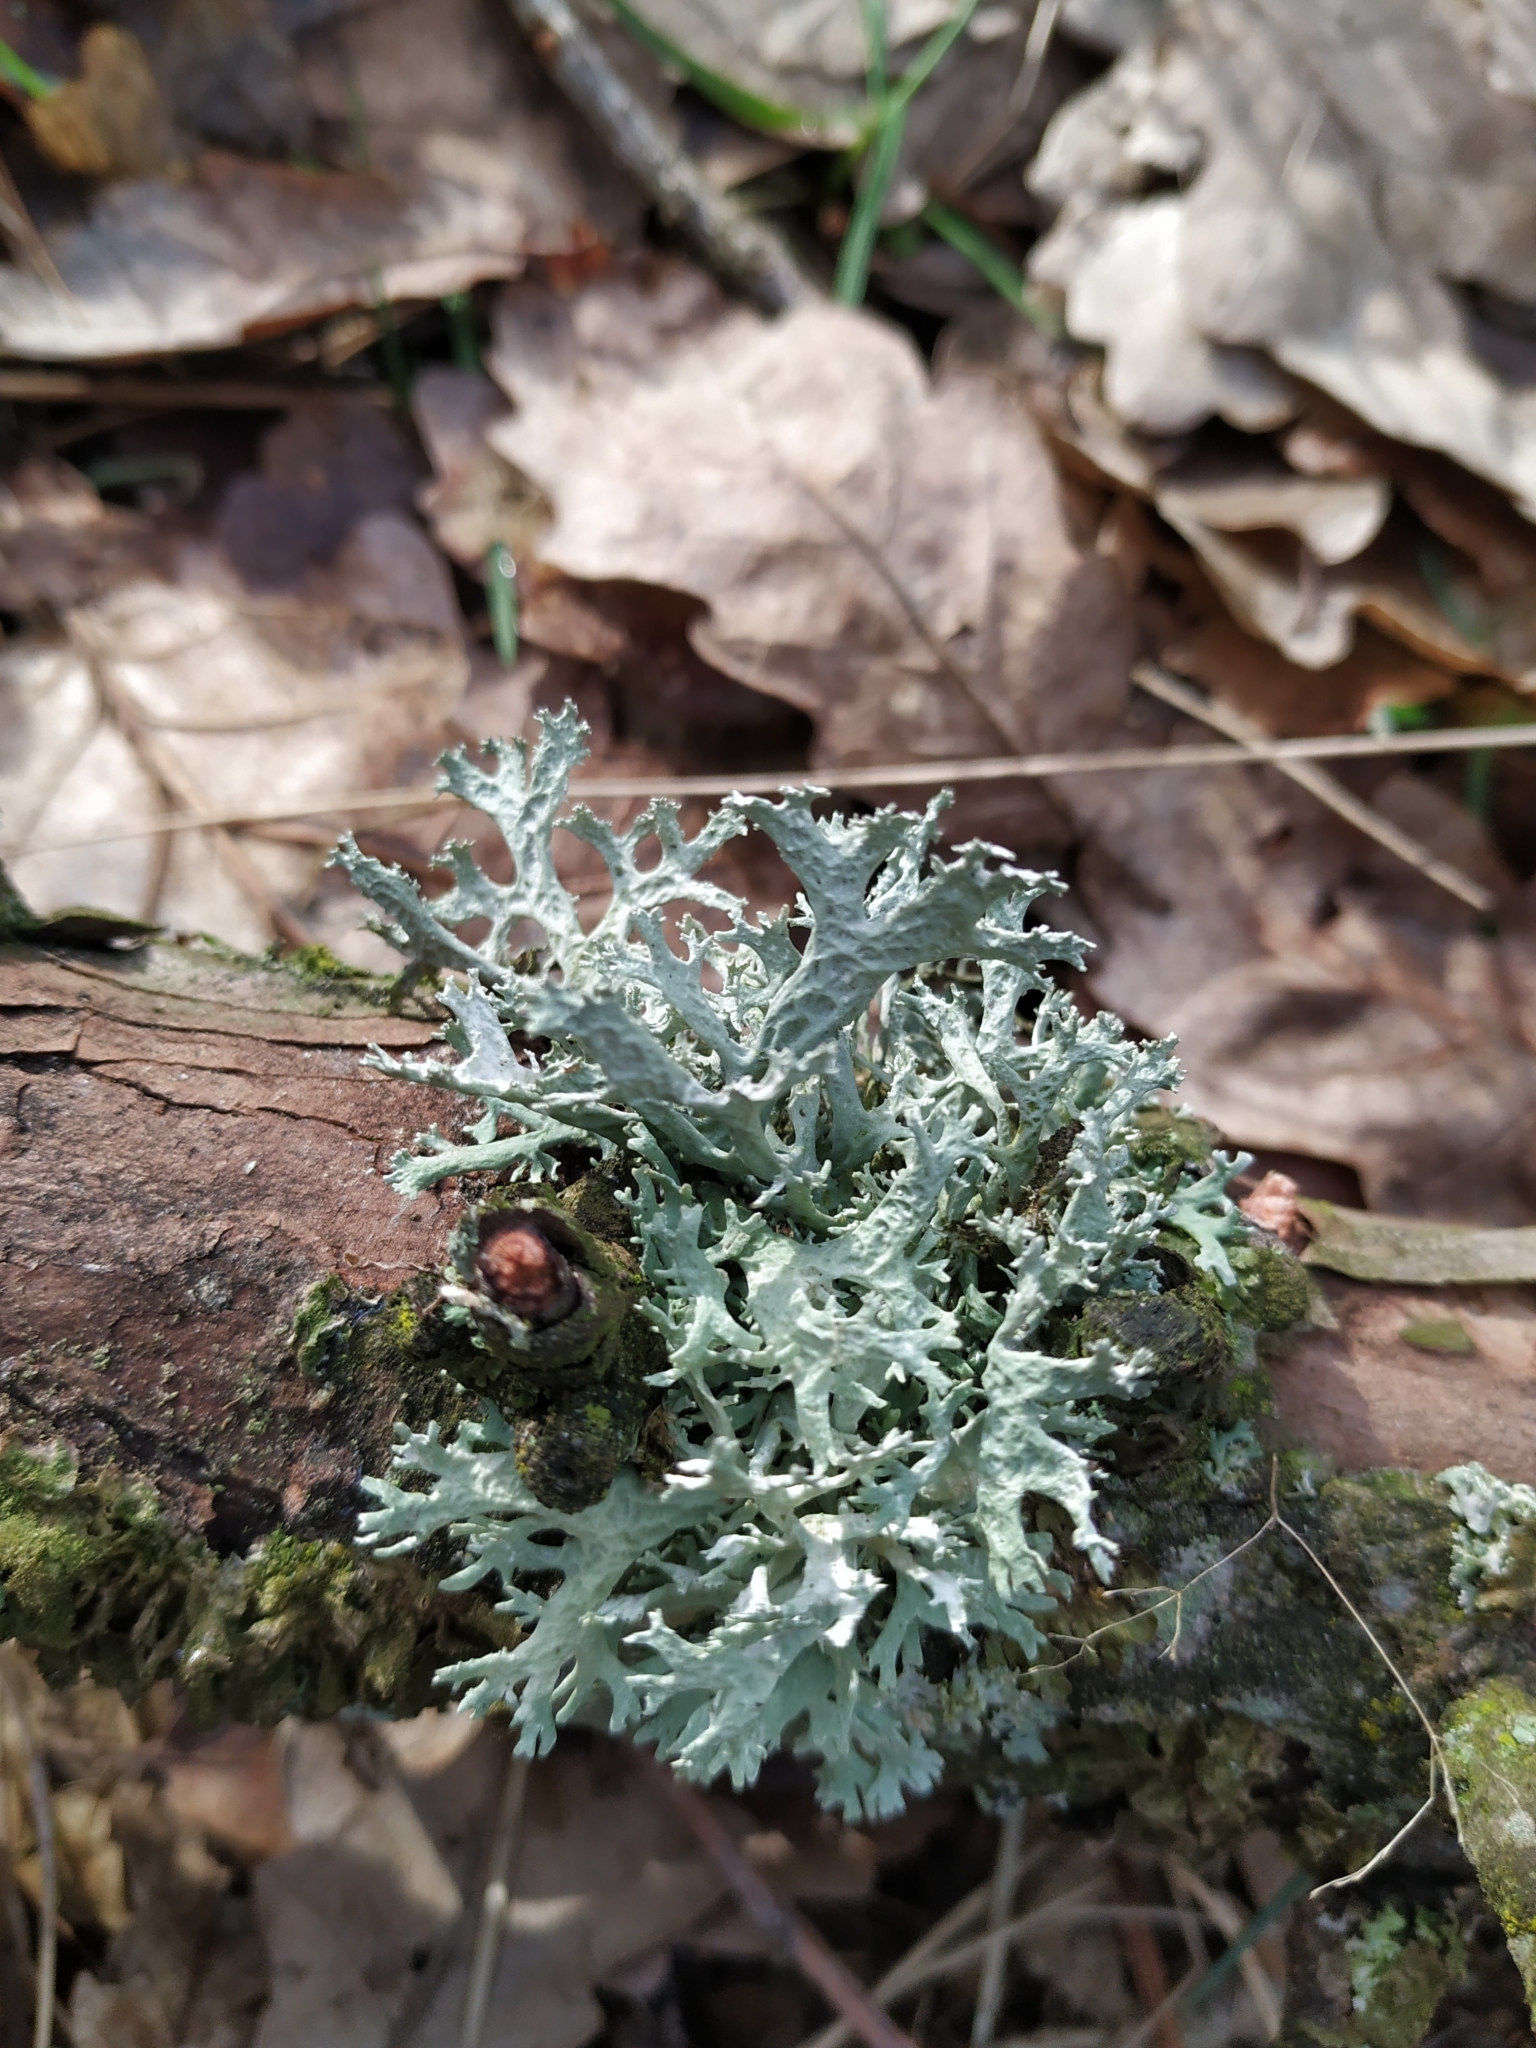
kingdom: Fungi
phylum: Ascomycota
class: Lecanoromycetes
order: Lecanorales
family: Parmeliaceae
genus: Evernia
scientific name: Evernia prunastri
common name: Oak moss
